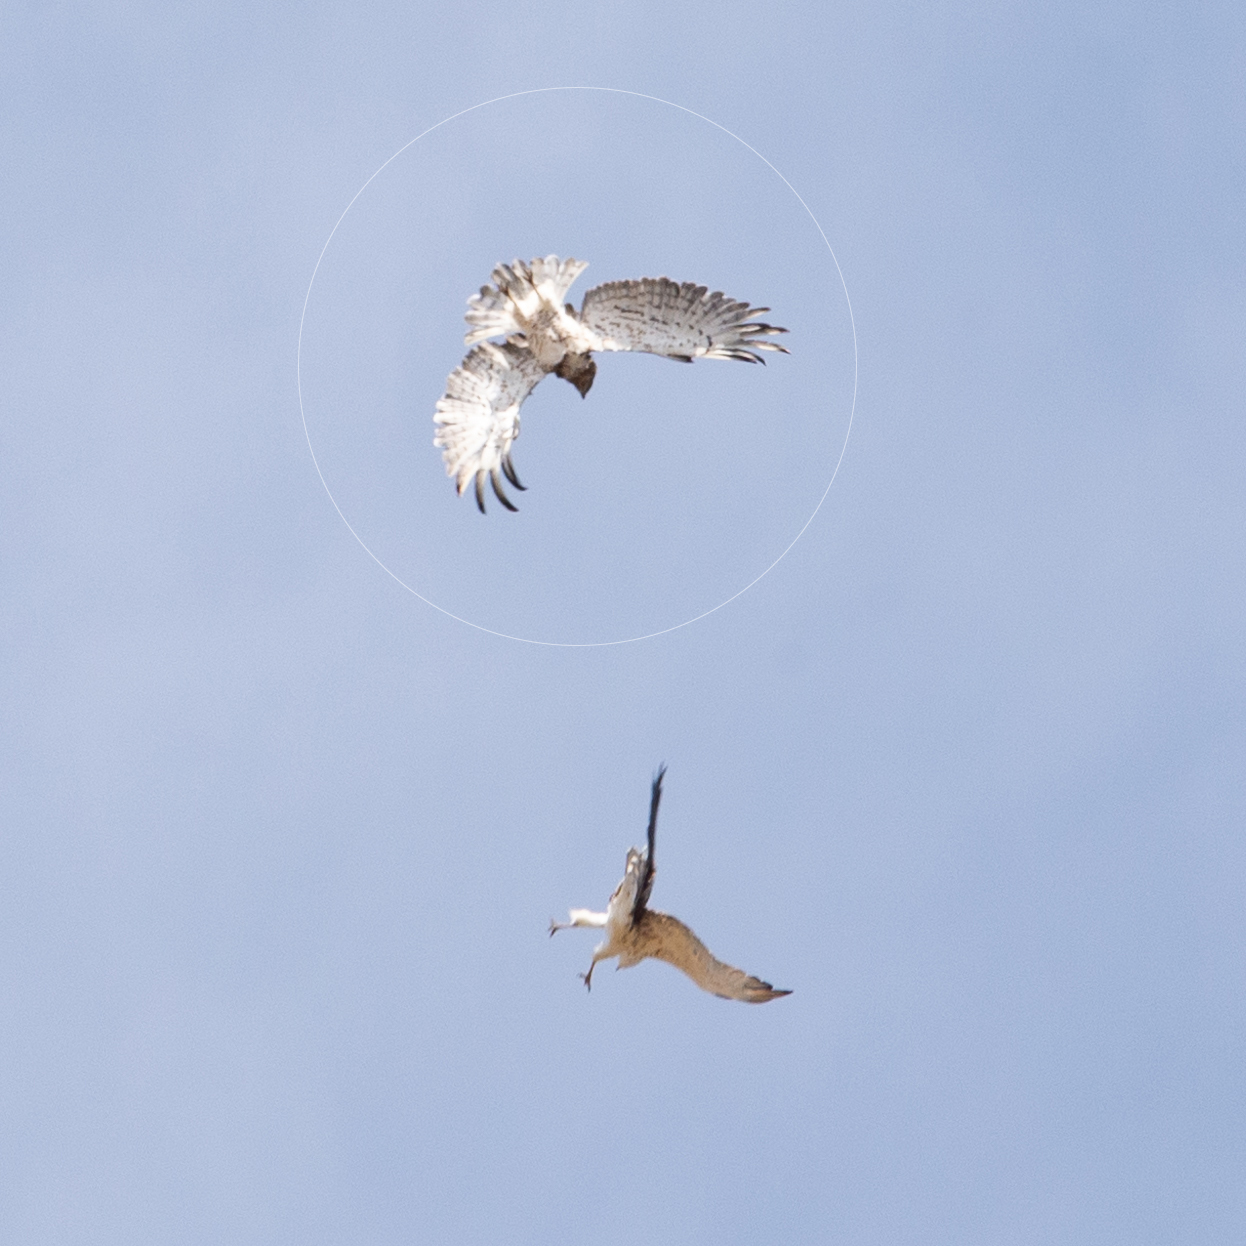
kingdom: Animalia
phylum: Chordata
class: Aves
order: Accipitriformes
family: Accipitridae
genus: Circaetus
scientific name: Circaetus gallicus
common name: Short-toed snake eagle
